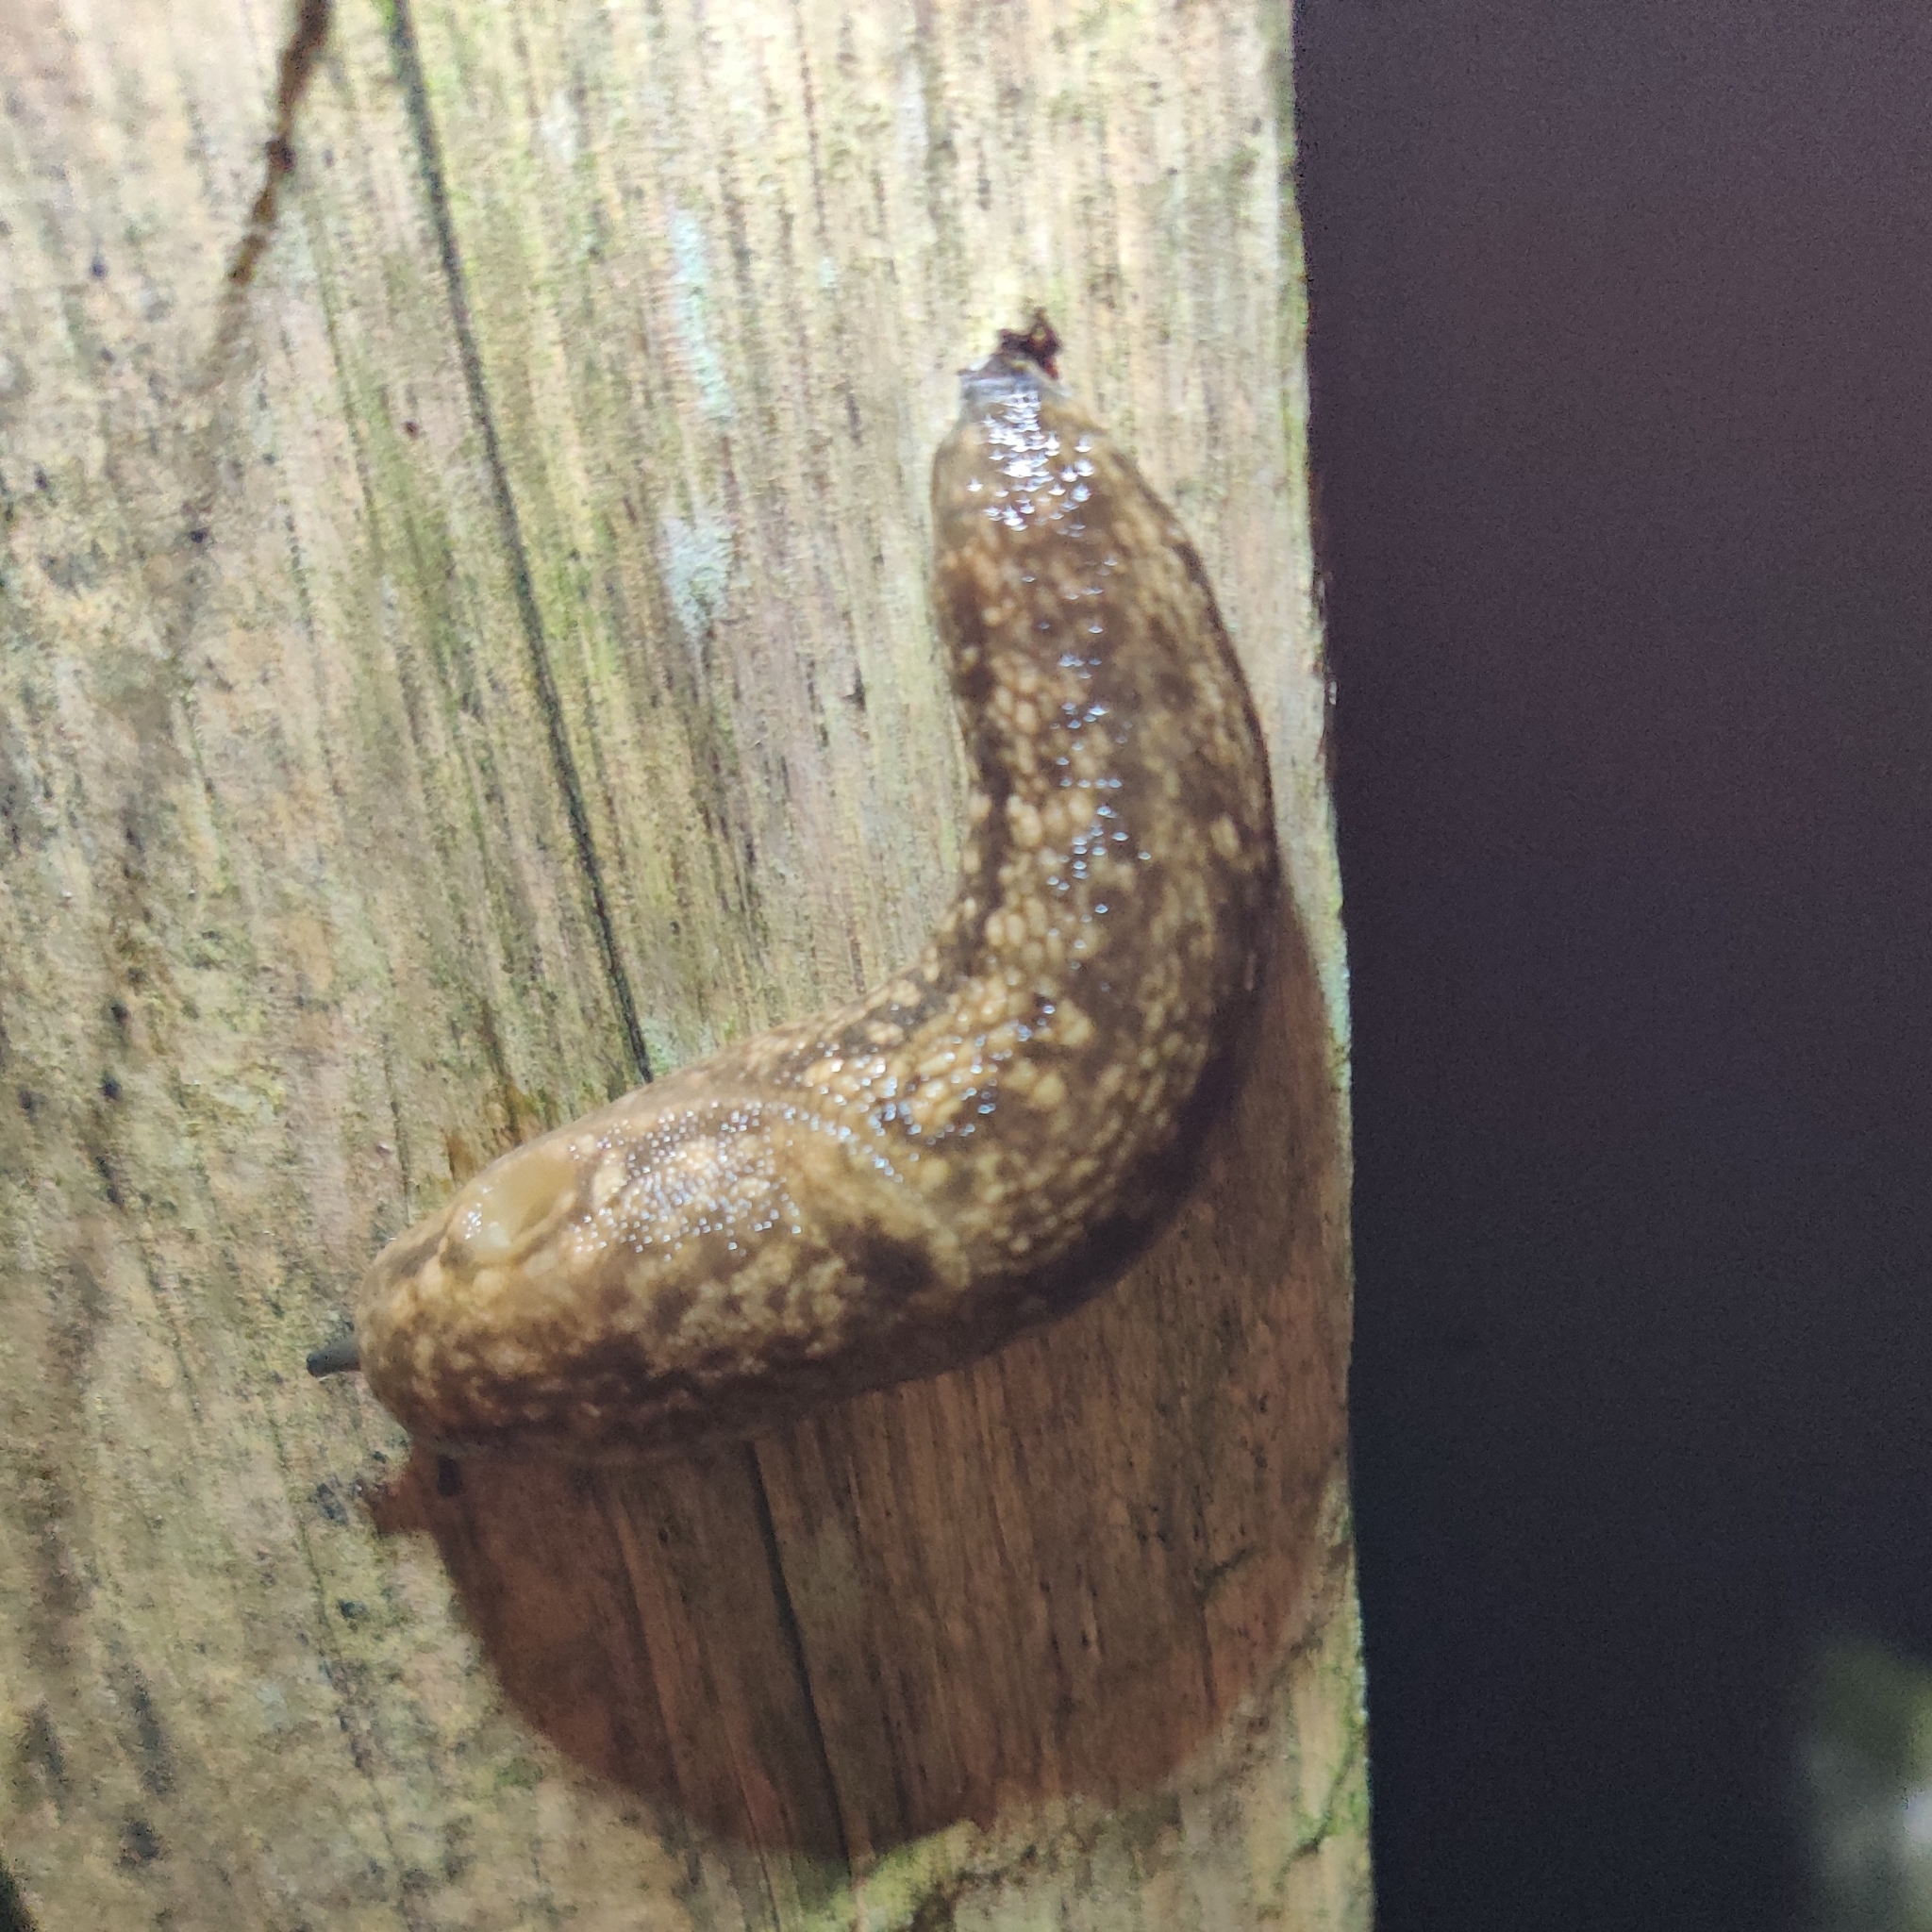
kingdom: Animalia
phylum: Mollusca
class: Gastropoda
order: Stylommatophora
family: Arionidae
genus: Geomalacus
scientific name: Geomalacus maculosus
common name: Kerry slug
